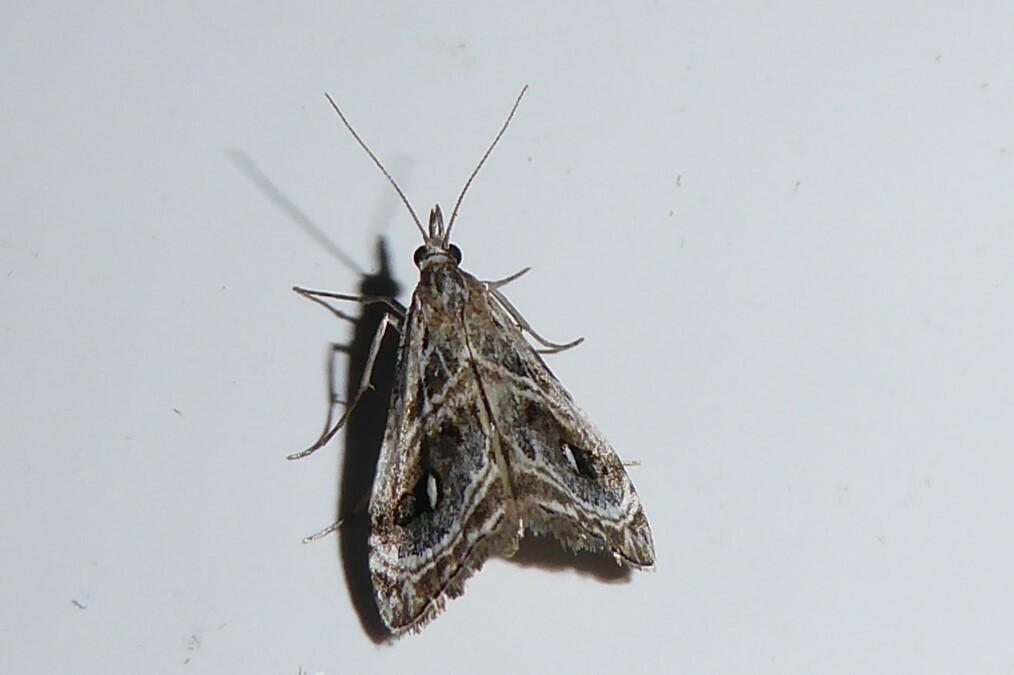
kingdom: Animalia
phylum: Arthropoda
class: Insecta
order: Lepidoptera
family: Crambidae
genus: Gadira
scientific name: Gadira acerella
